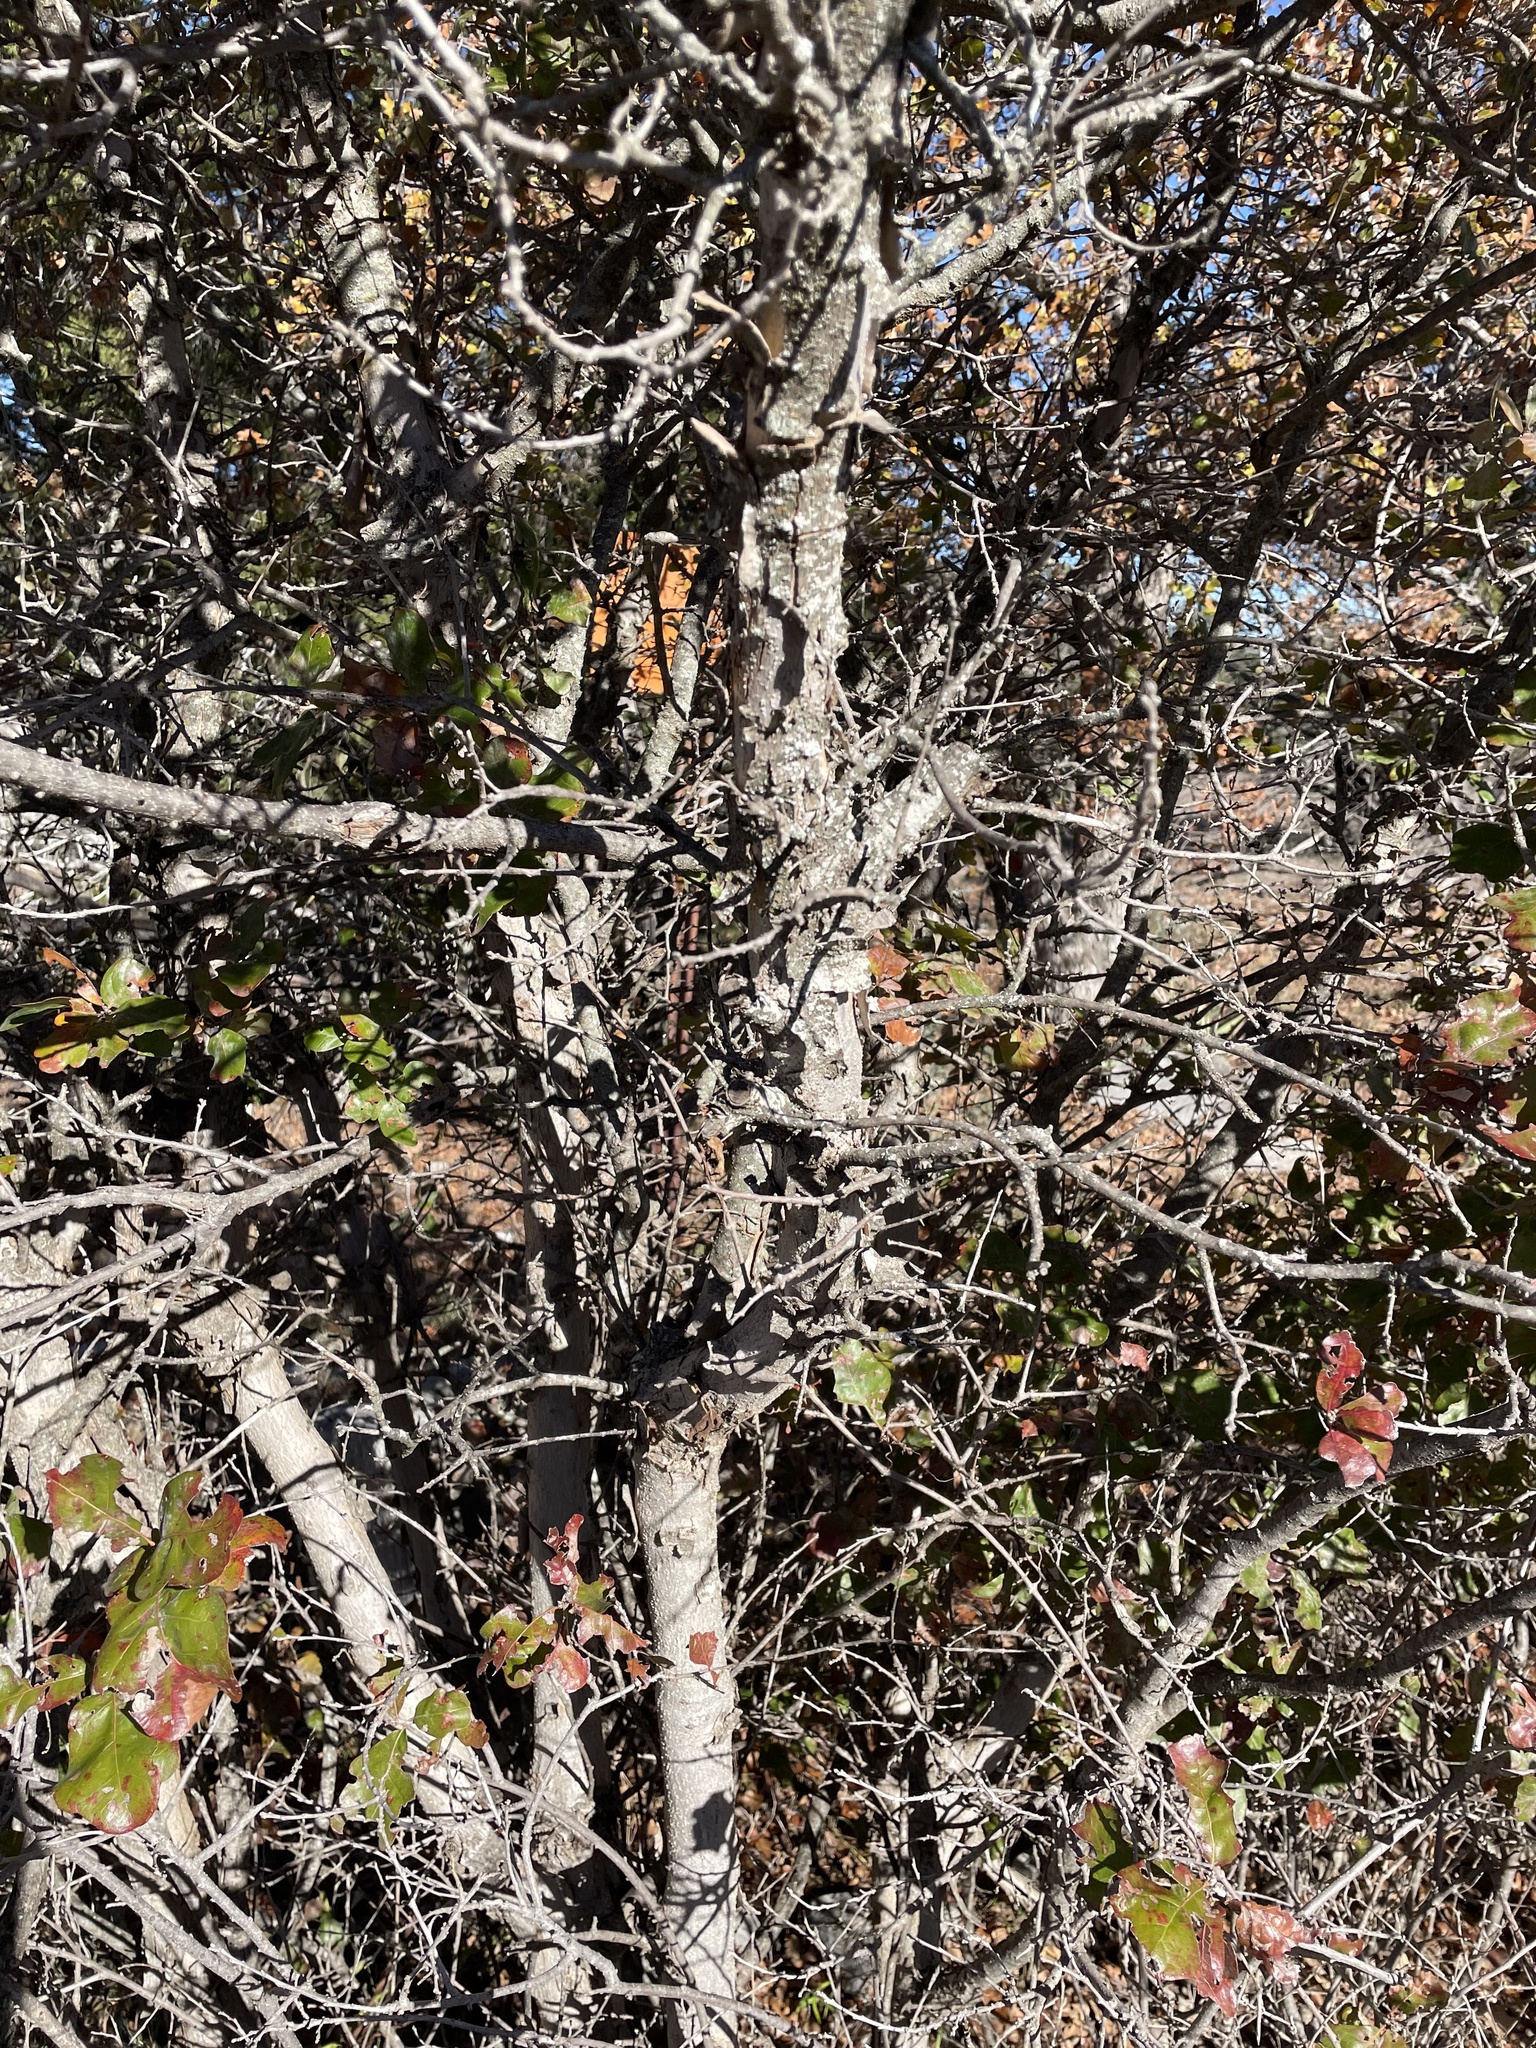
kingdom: Plantae
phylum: Tracheophyta
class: Magnoliopsida
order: Fagales
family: Fagaceae
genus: Quercus
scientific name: Quercus sinuata
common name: Durand oak
